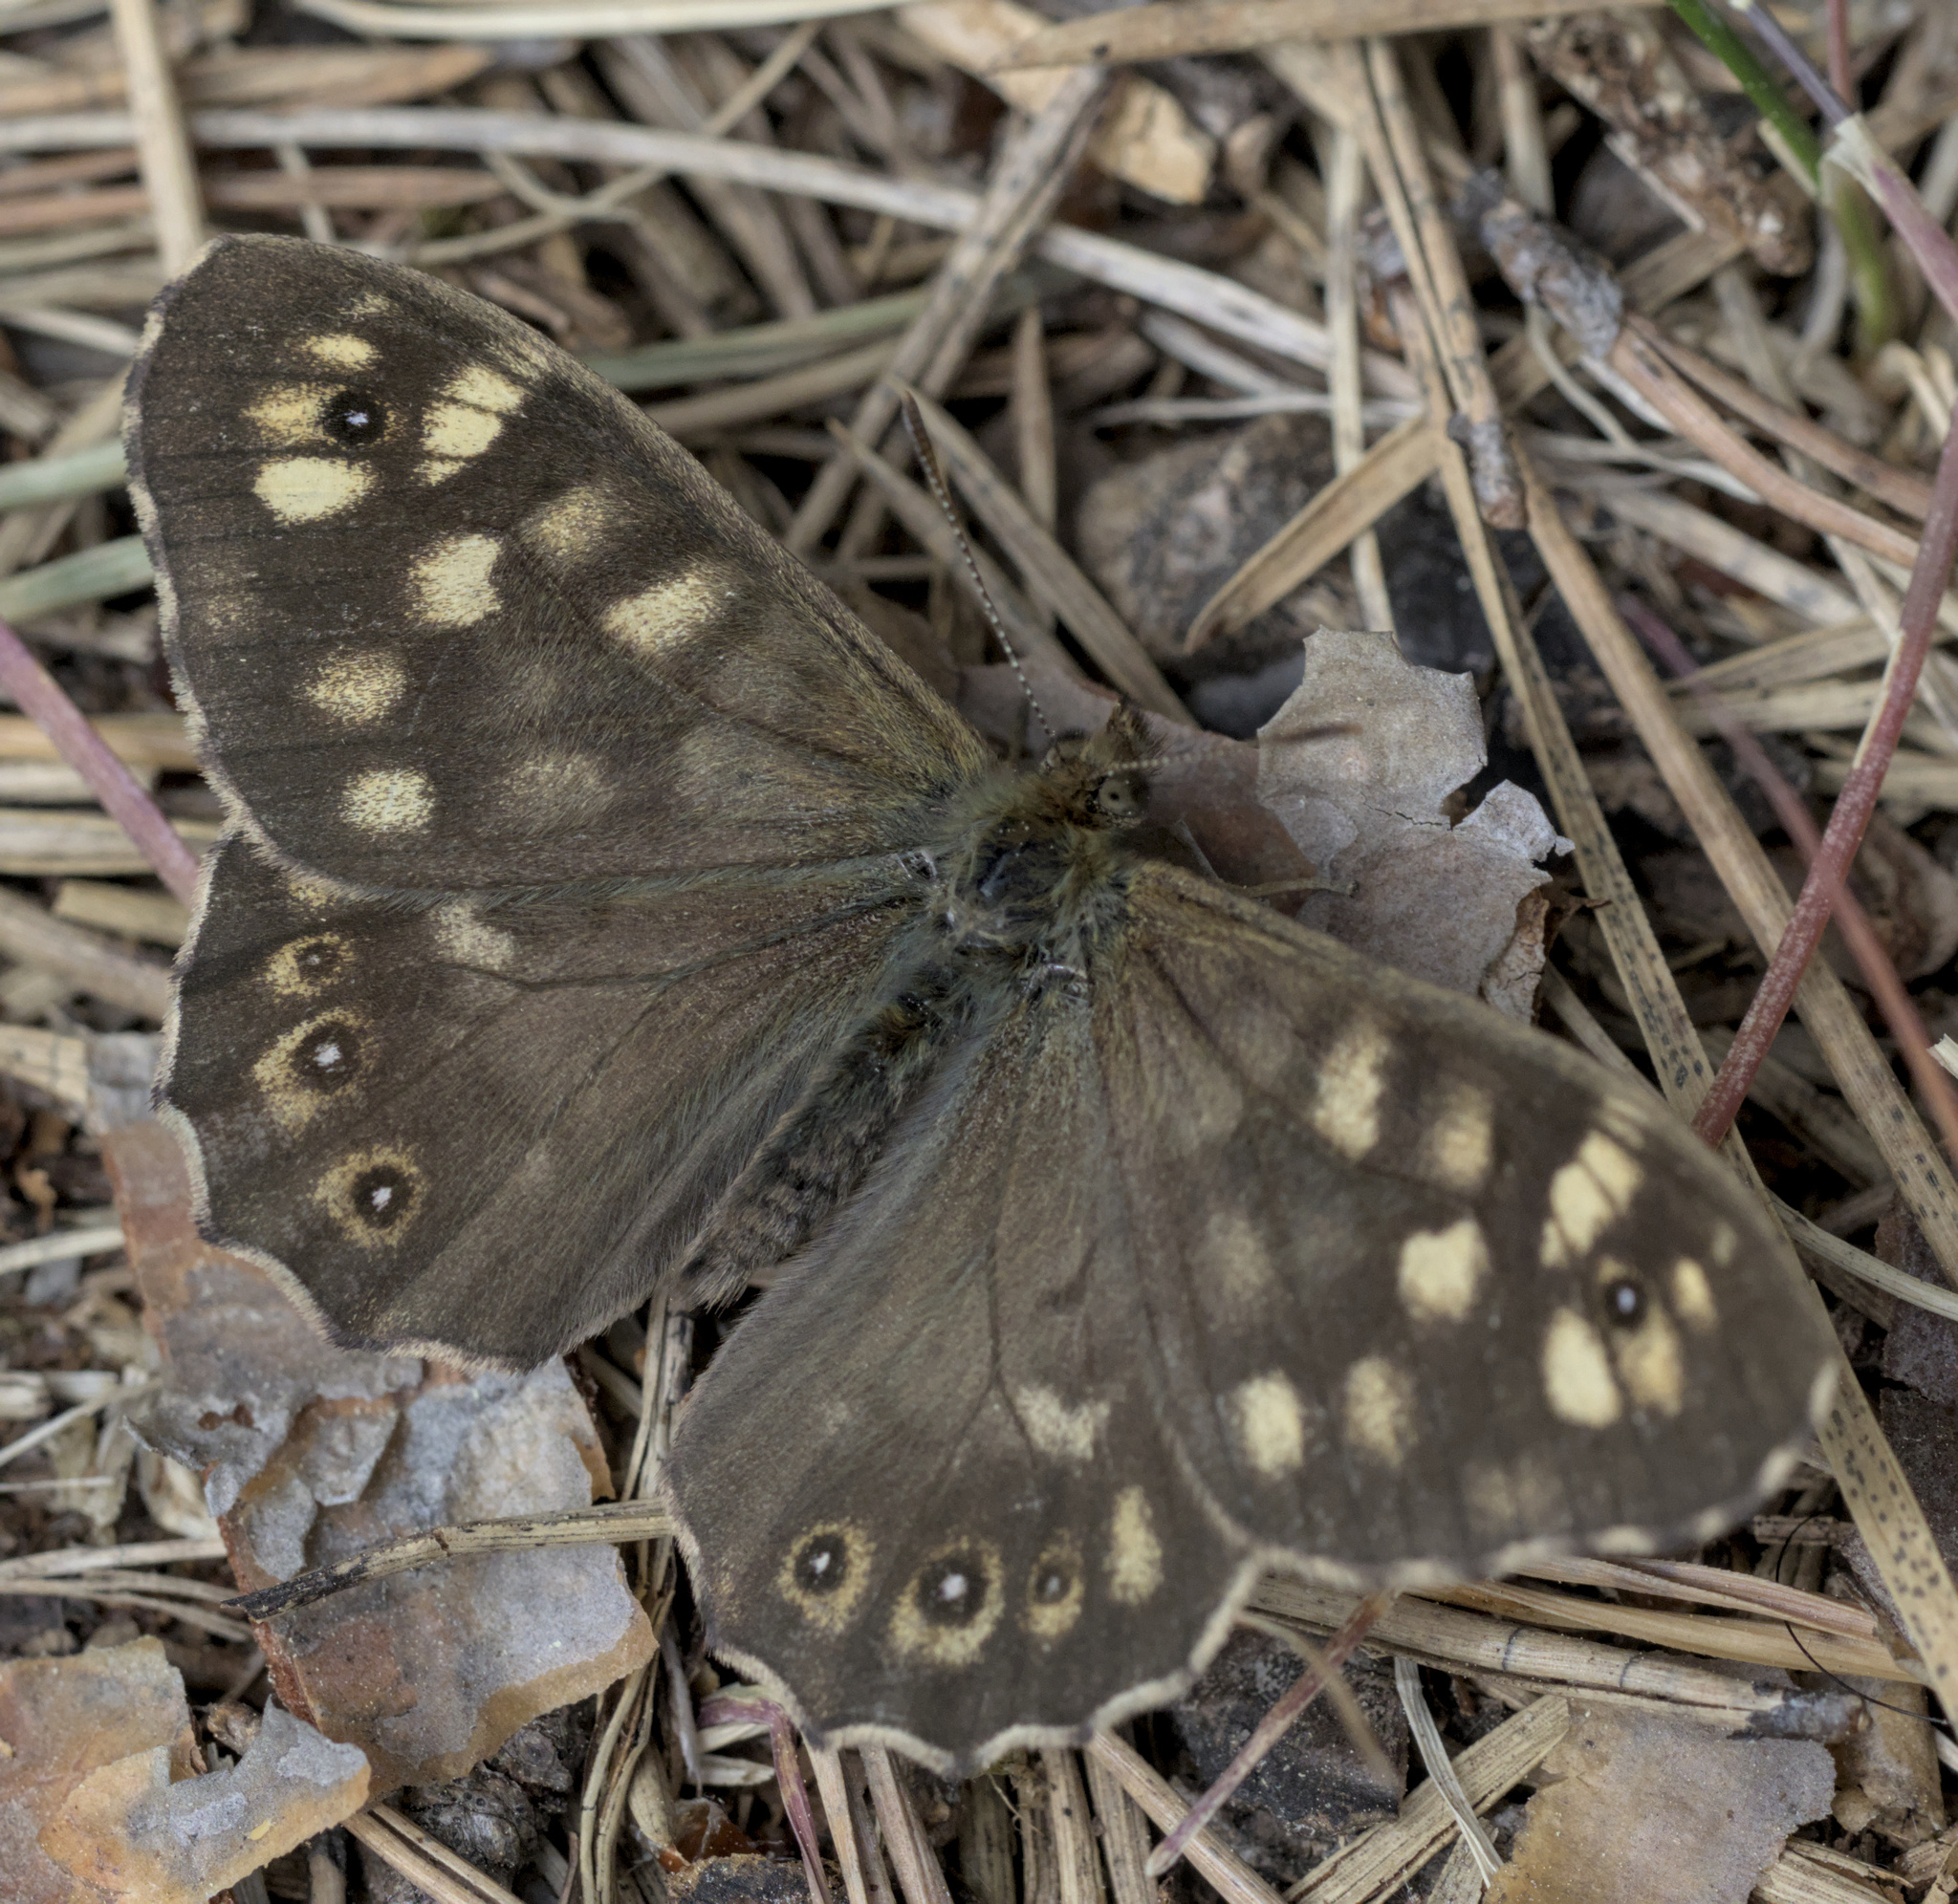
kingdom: Animalia
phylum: Arthropoda
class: Insecta
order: Lepidoptera
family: Nymphalidae
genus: Pararge
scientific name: Pararge aegeria
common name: Speckled wood
